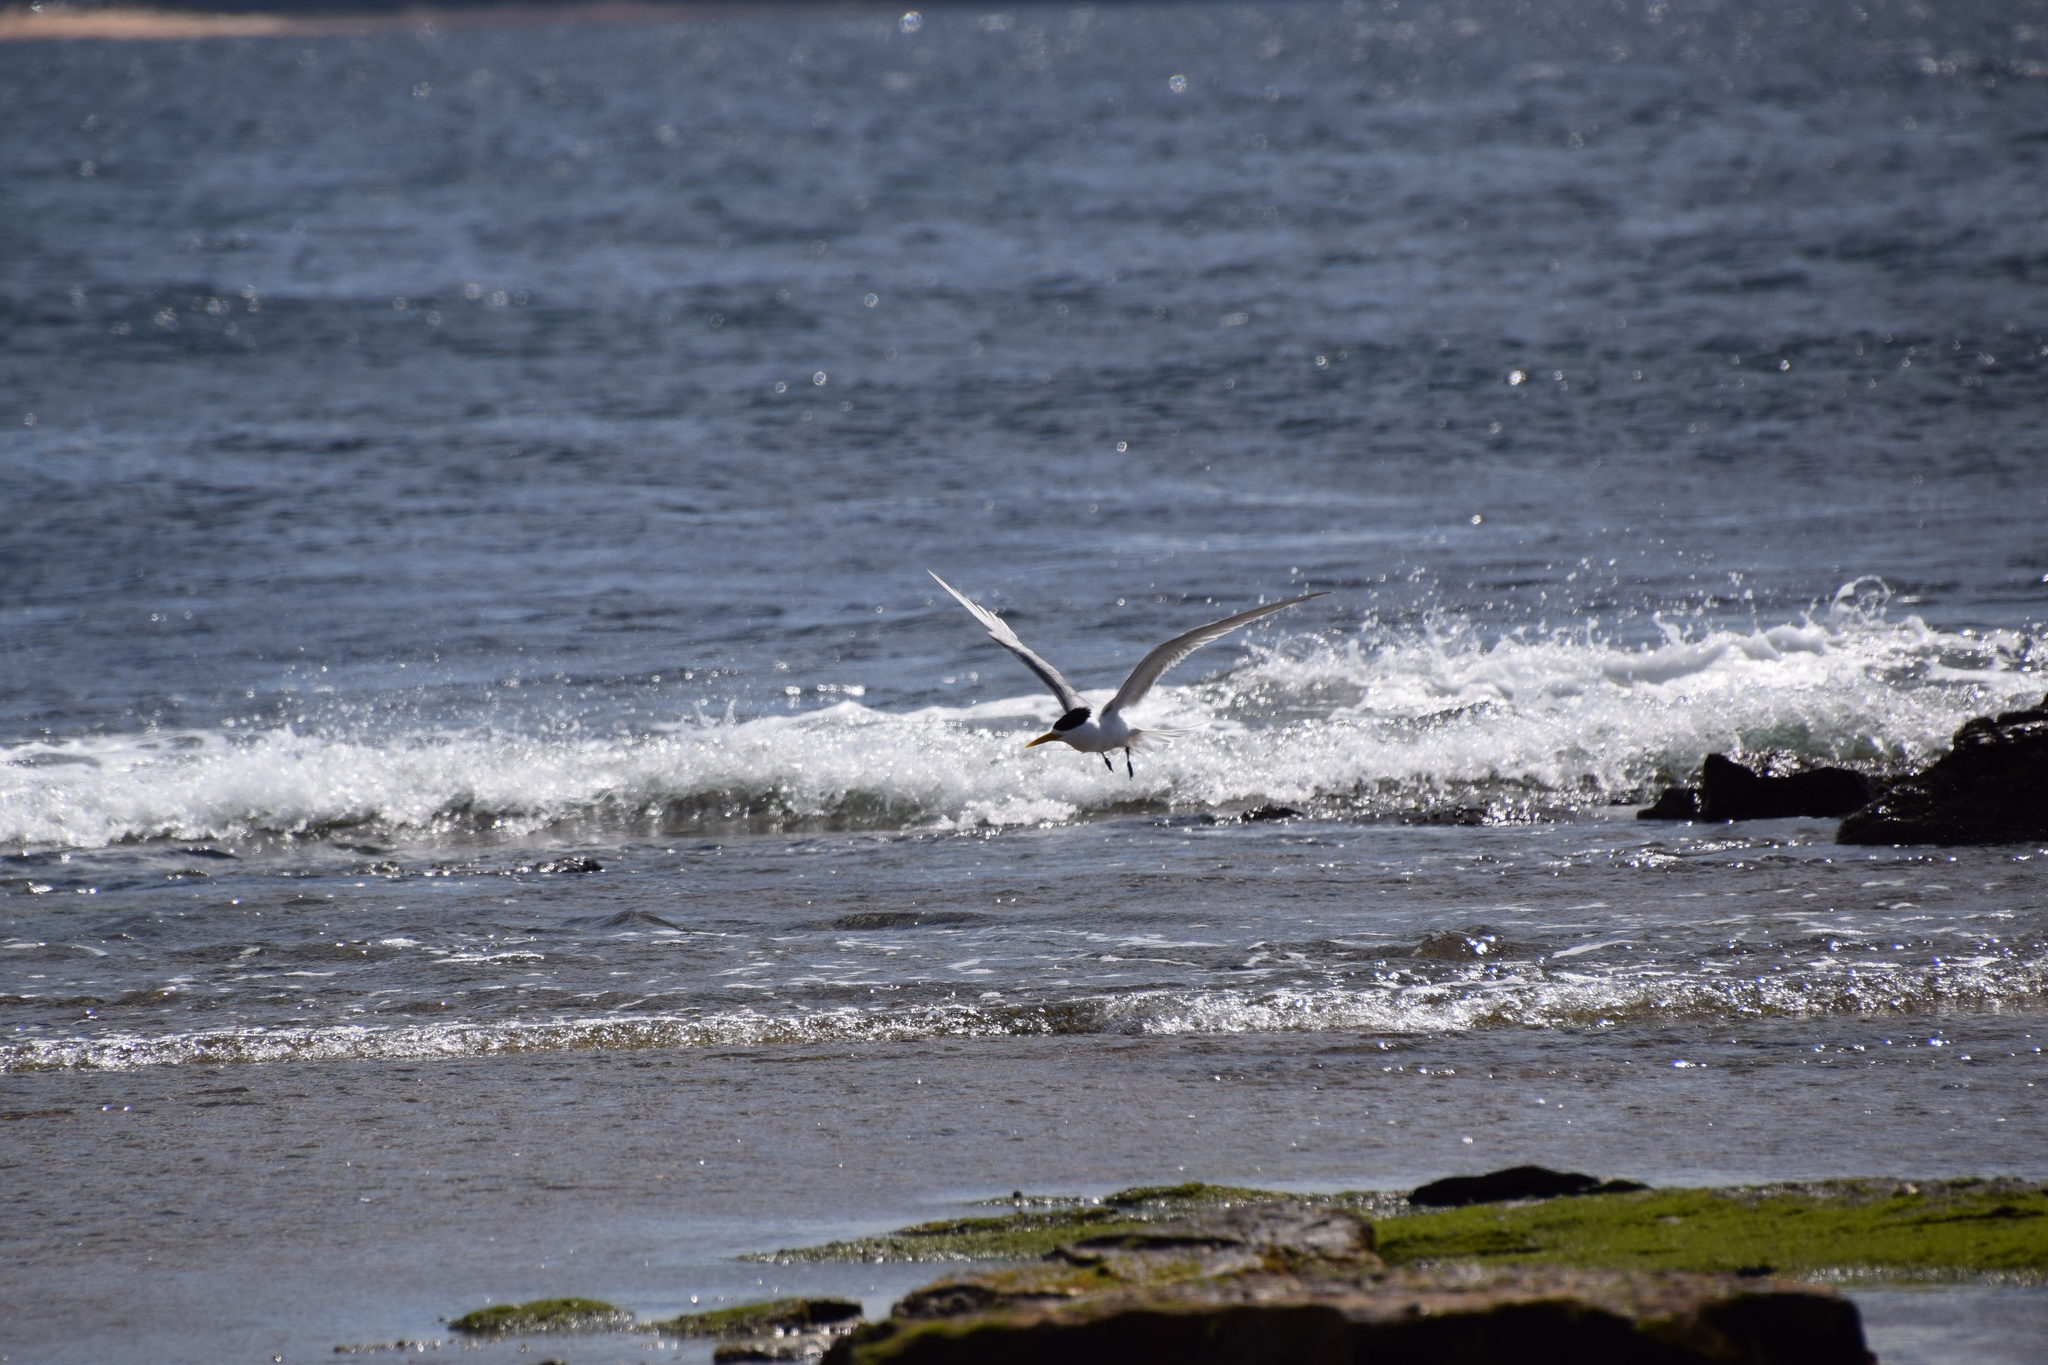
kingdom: Animalia
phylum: Chordata
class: Aves
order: Charadriiformes
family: Laridae
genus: Thalasseus
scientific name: Thalasseus bergii
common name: Greater crested tern
